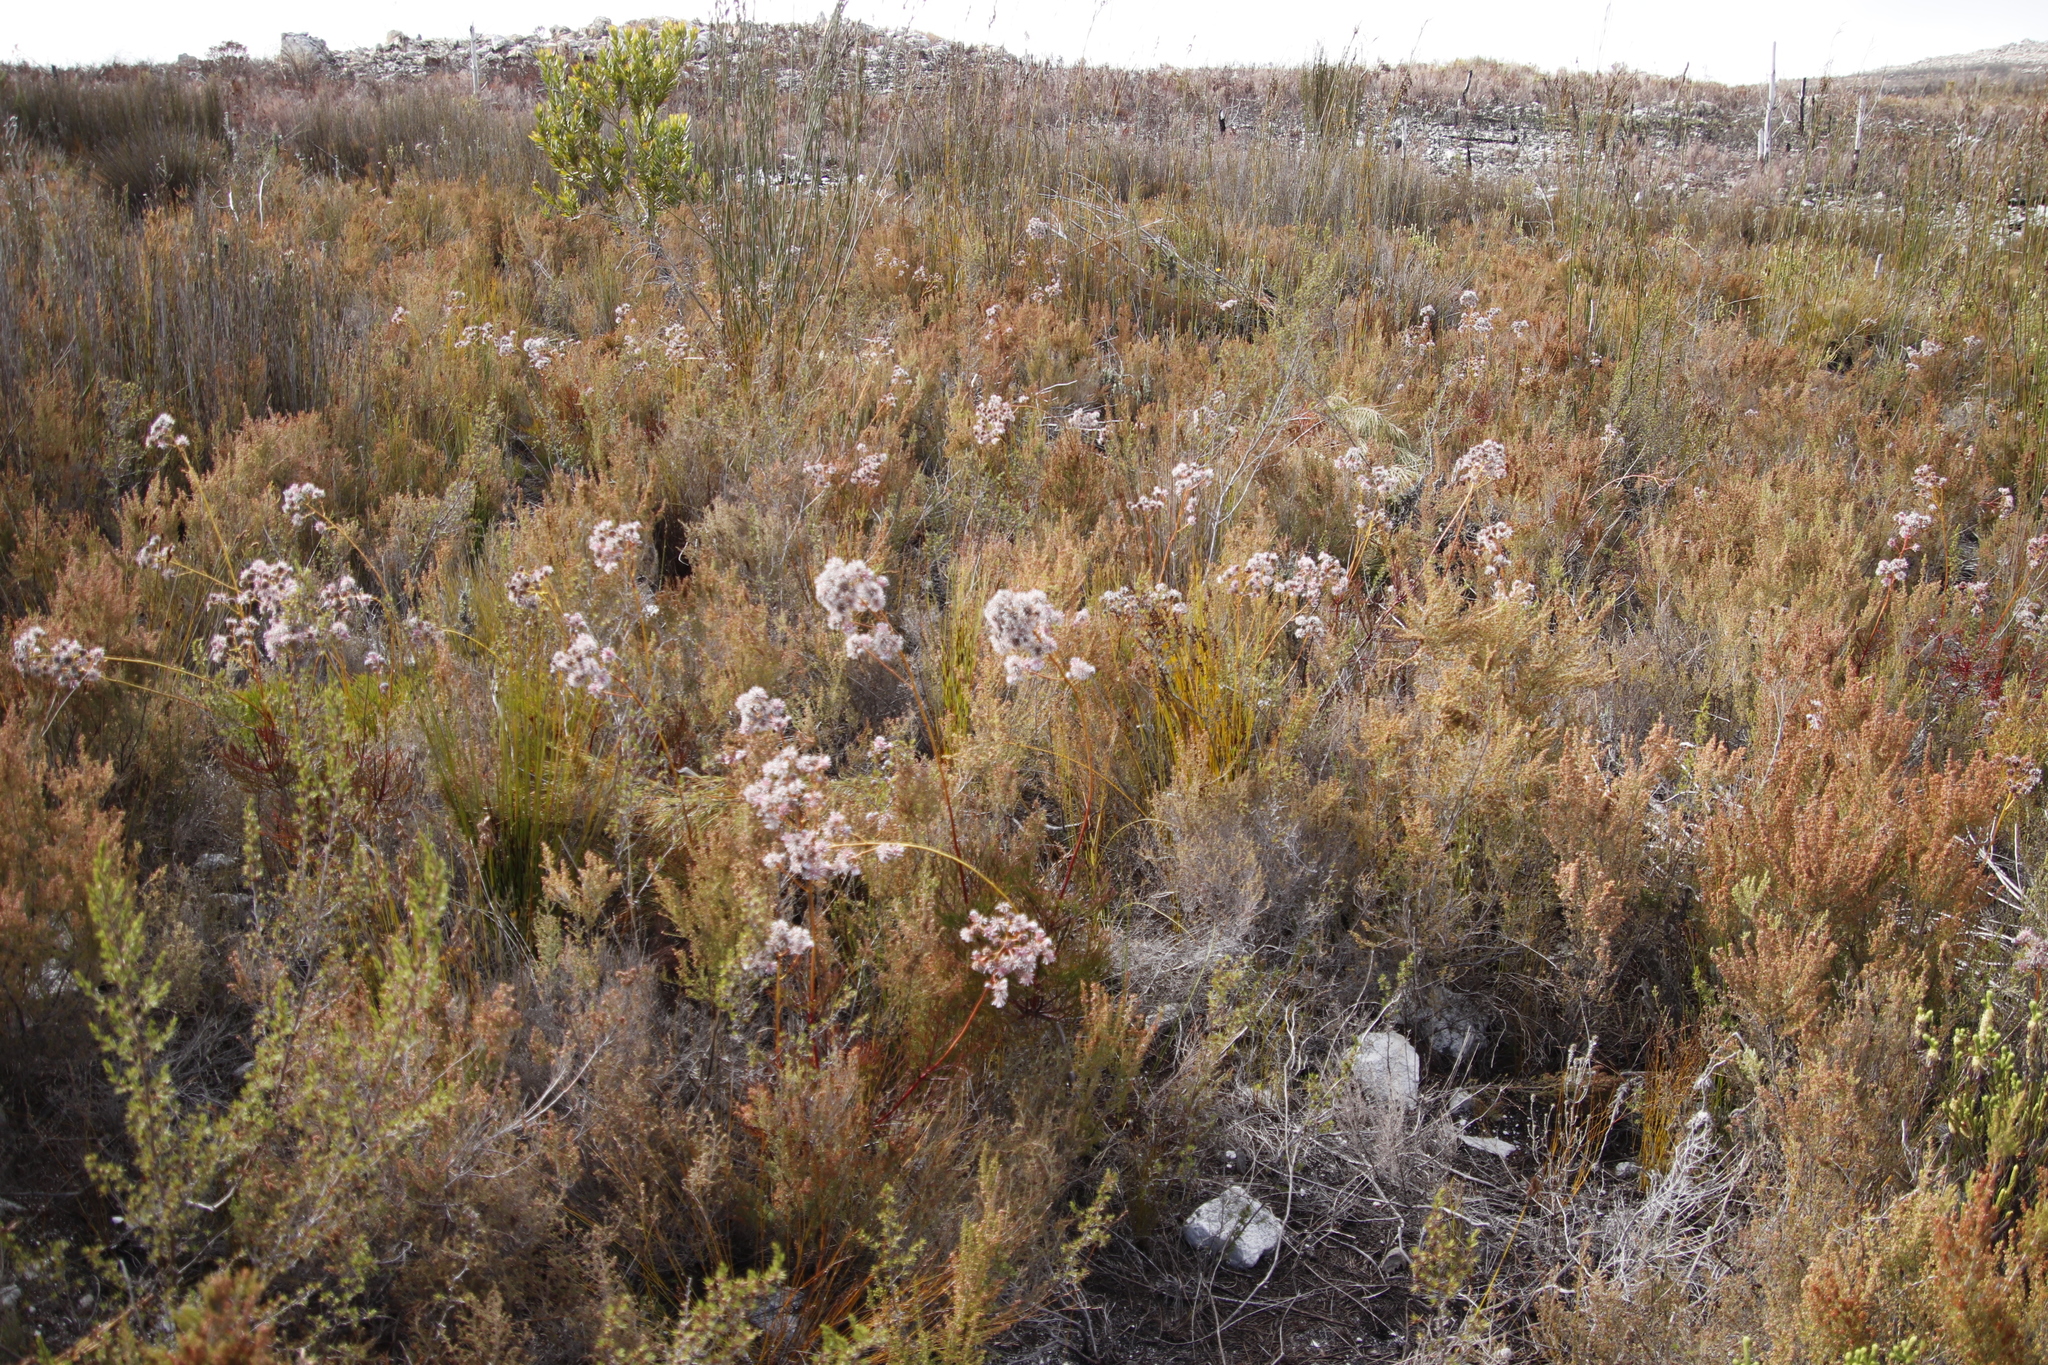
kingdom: Plantae
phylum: Tracheophyta
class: Magnoliopsida
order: Proteales
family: Proteaceae
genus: Serruria
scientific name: Serruria elongata
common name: Long-stalk spiderhead
